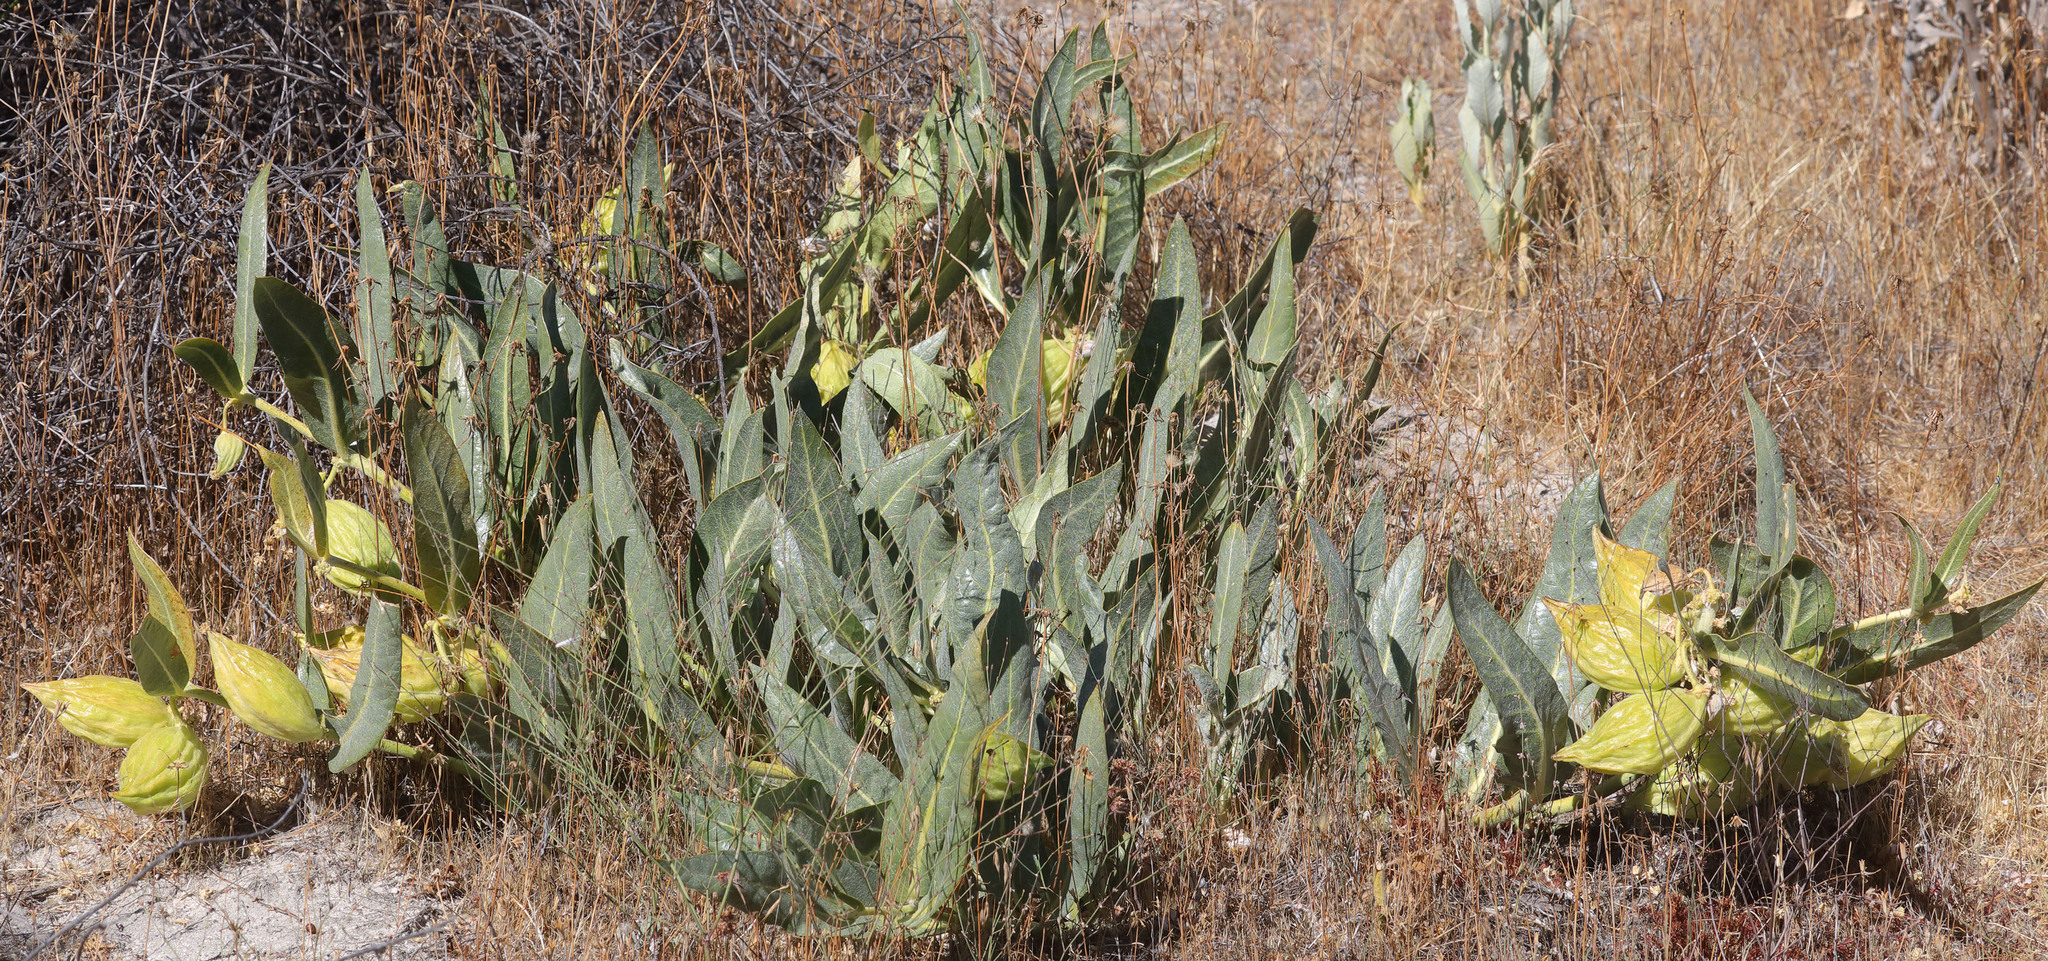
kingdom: Plantae
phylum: Tracheophyta
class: Magnoliopsida
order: Gentianales
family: Apocynaceae
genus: Asclepias
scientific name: Asclepias vestita
